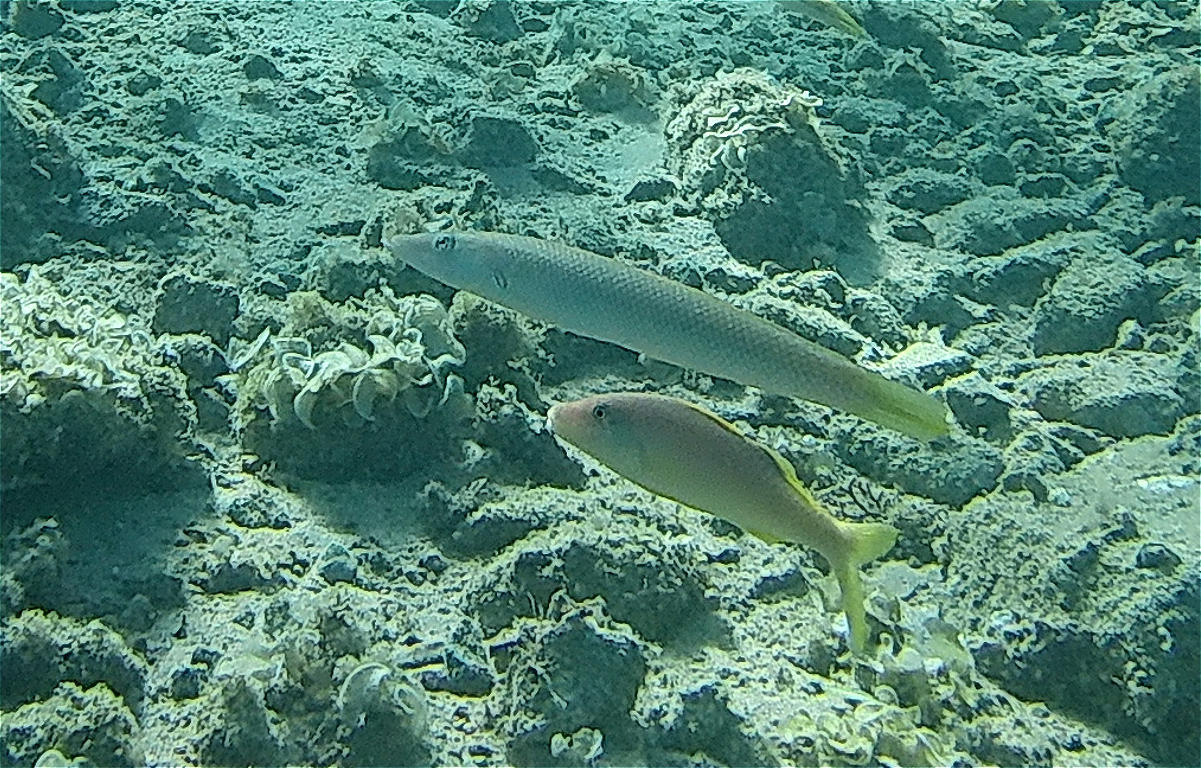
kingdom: Animalia
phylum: Chordata
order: Perciformes
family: Labridae
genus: Cheilio
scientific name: Cheilio inermis
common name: Cigar wrasse
